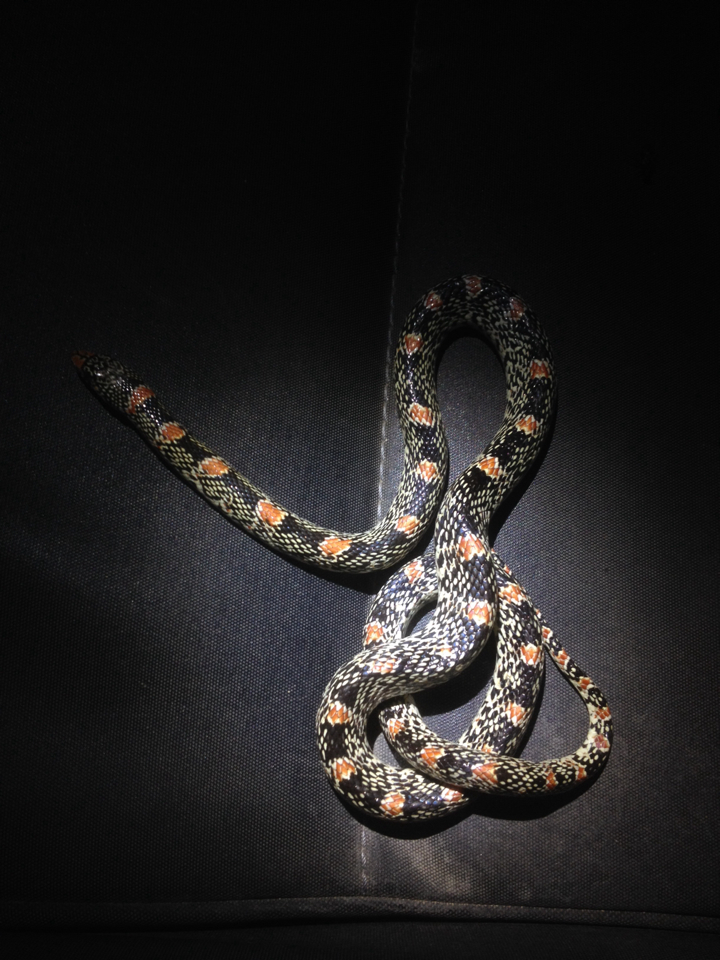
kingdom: Animalia
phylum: Chordata
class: Squamata
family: Colubridae
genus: Rhinocheilus
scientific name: Rhinocheilus lecontei
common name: Longnose snake
